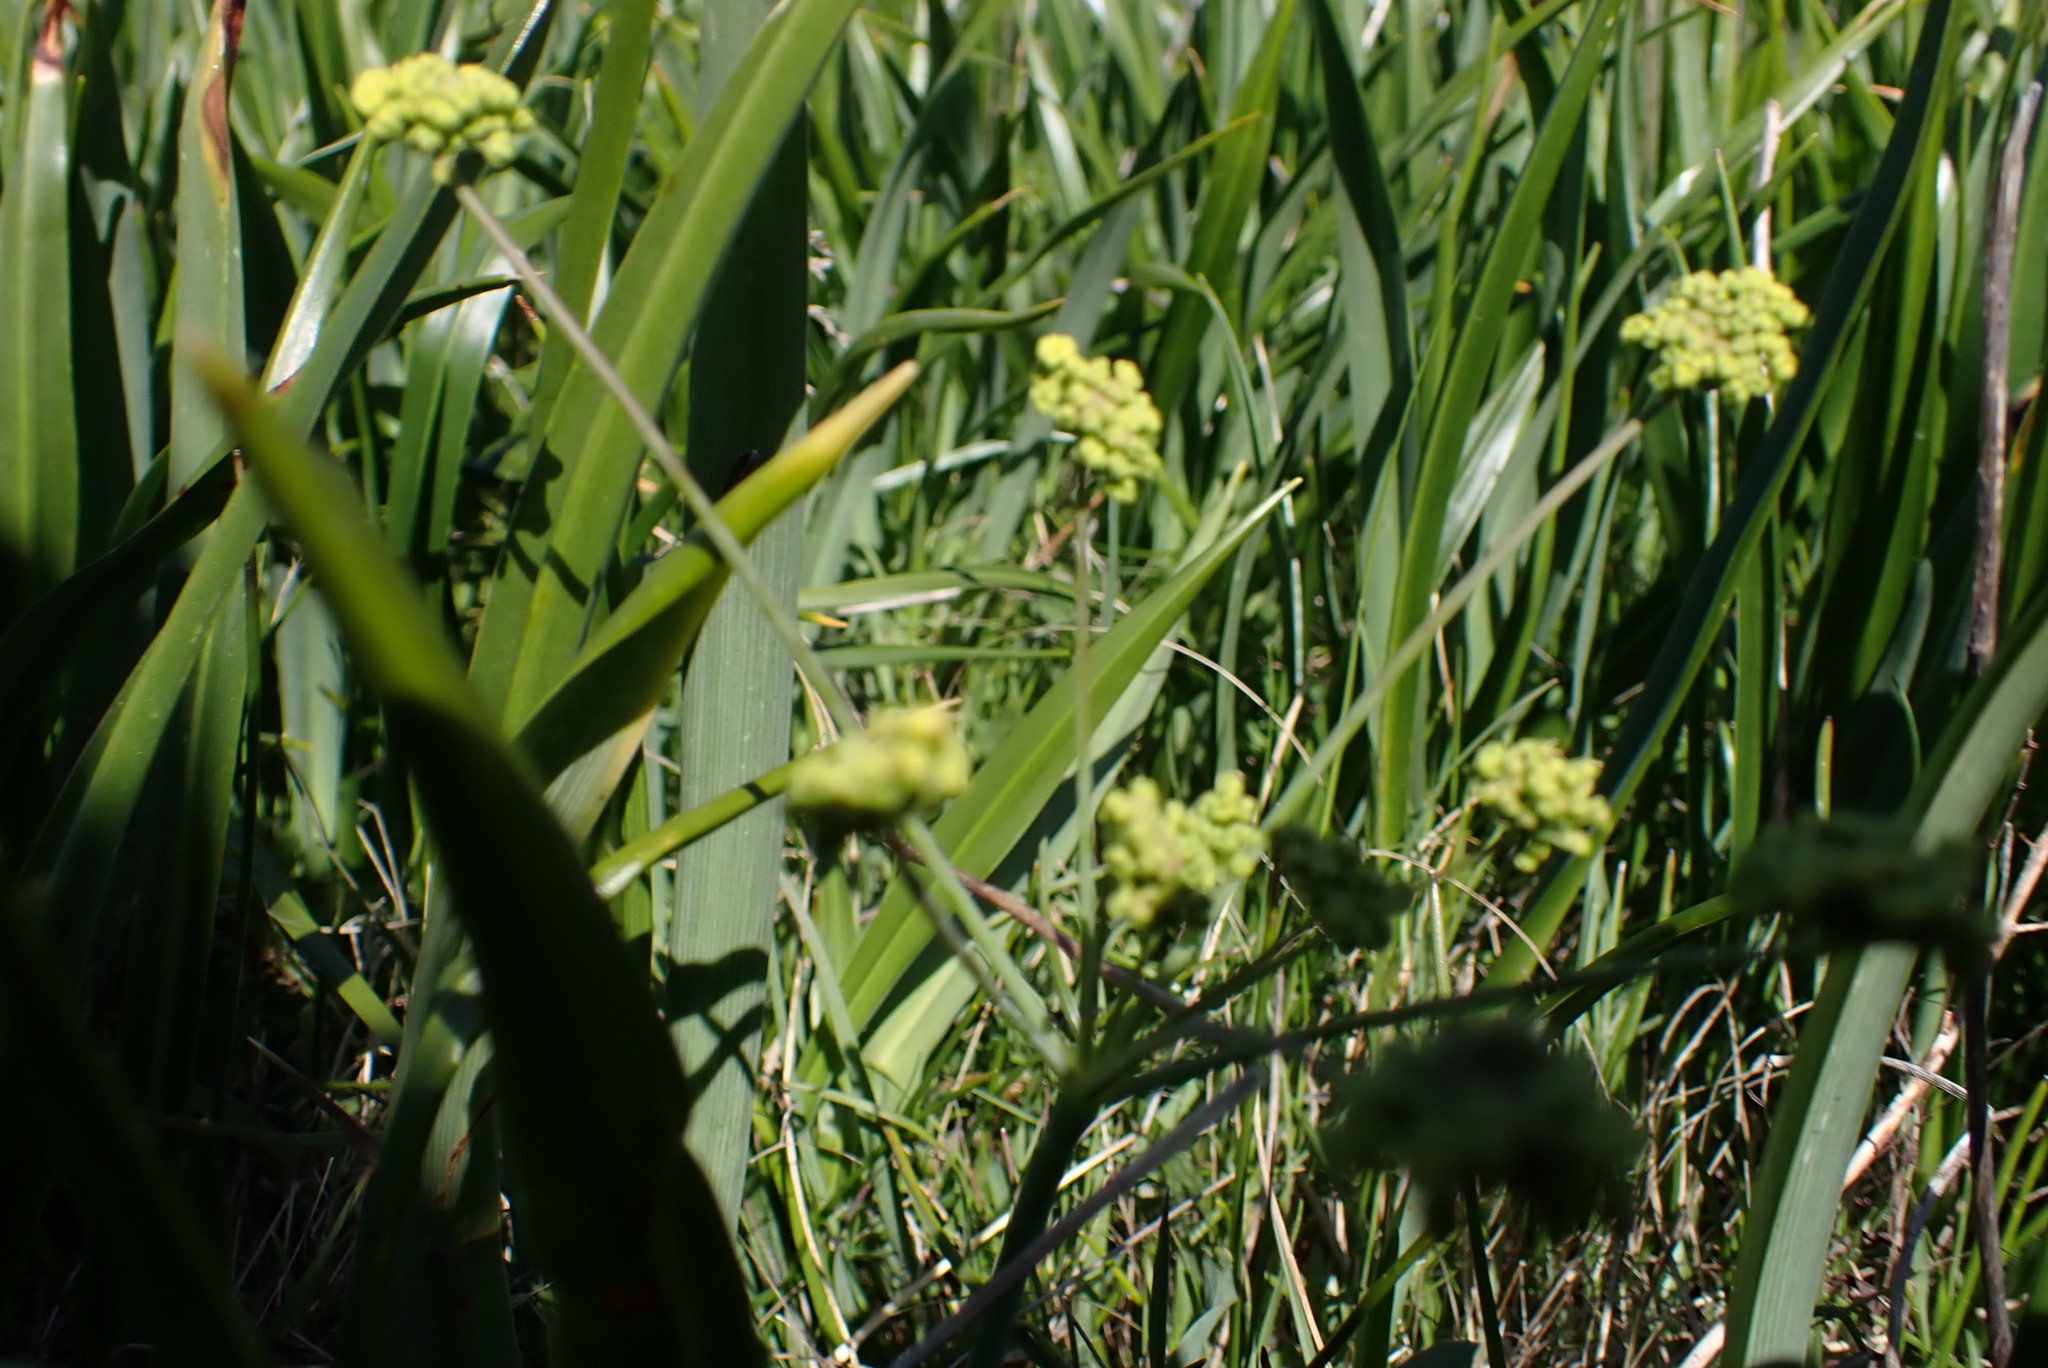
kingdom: Plantae
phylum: Tracheophyta
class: Magnoliopsida
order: Apiales
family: Apiaceae
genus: Lomatium
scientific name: Lomatium nudicaule
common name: Pestle lomatium
